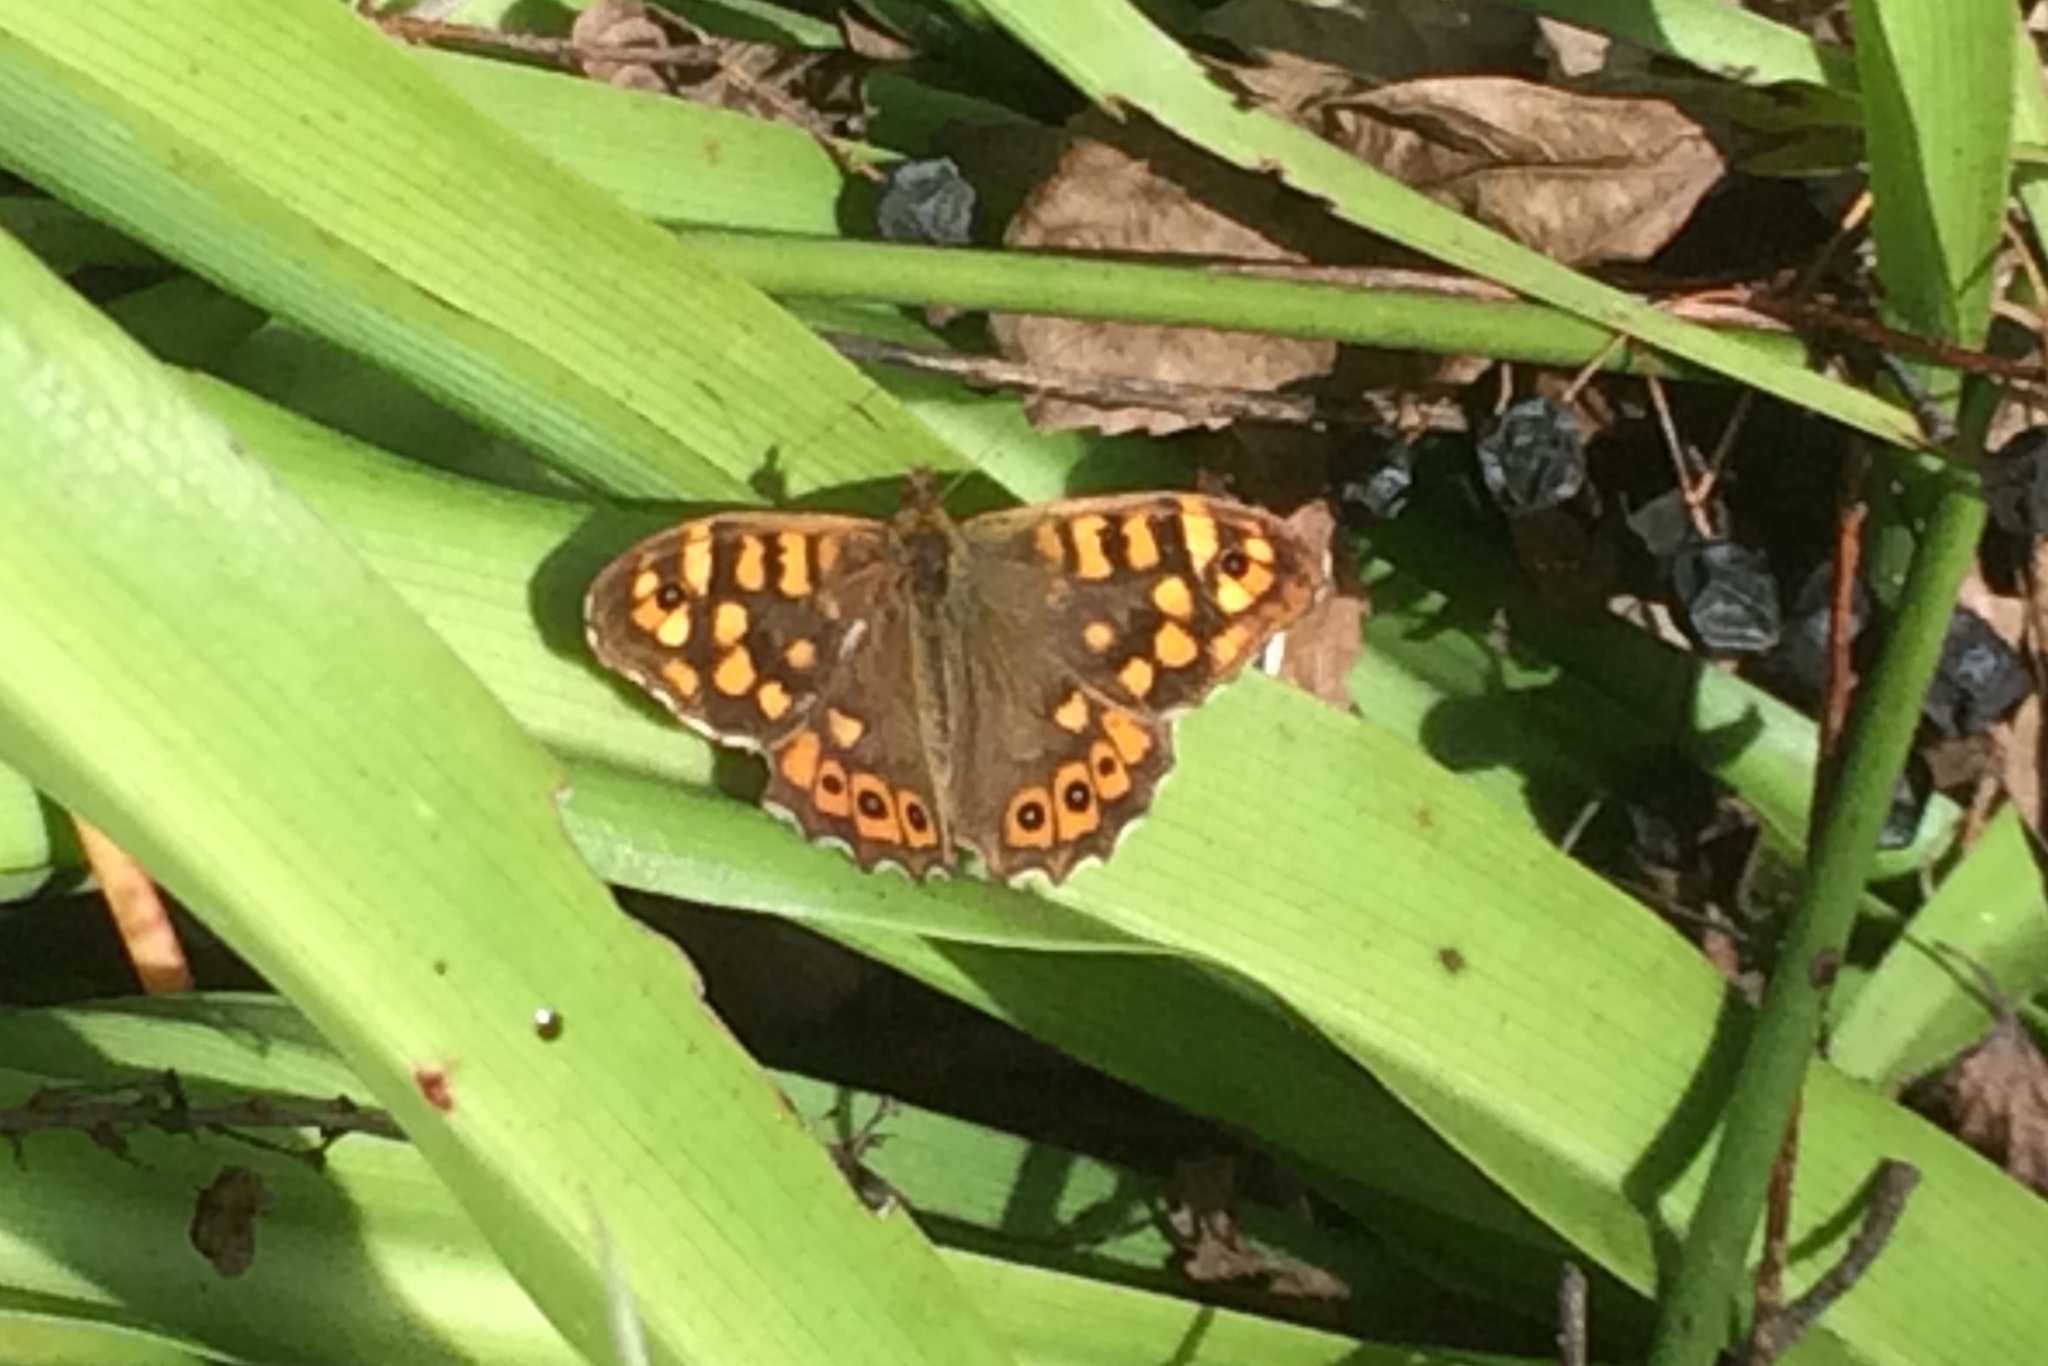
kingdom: Animalia
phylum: Arthropoda
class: Insecta
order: Lepidoptera
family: Nymphalidae
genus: Pararge
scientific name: Pararge aegeria
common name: Speckled wood
